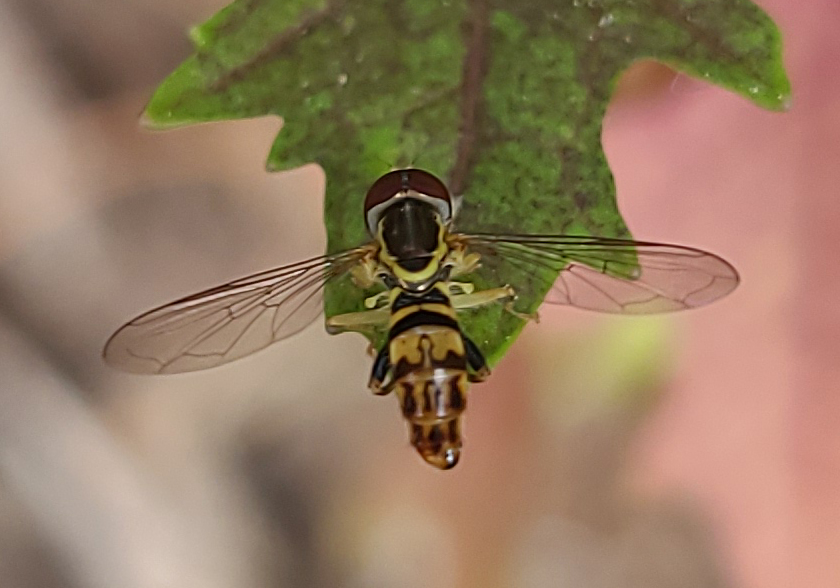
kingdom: Animalia
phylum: Arthropoda
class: Insecta
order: Diptera
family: Syrphidae
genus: Toxomerus
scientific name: Toxomerus geminatus
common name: Eastern calligrapher
